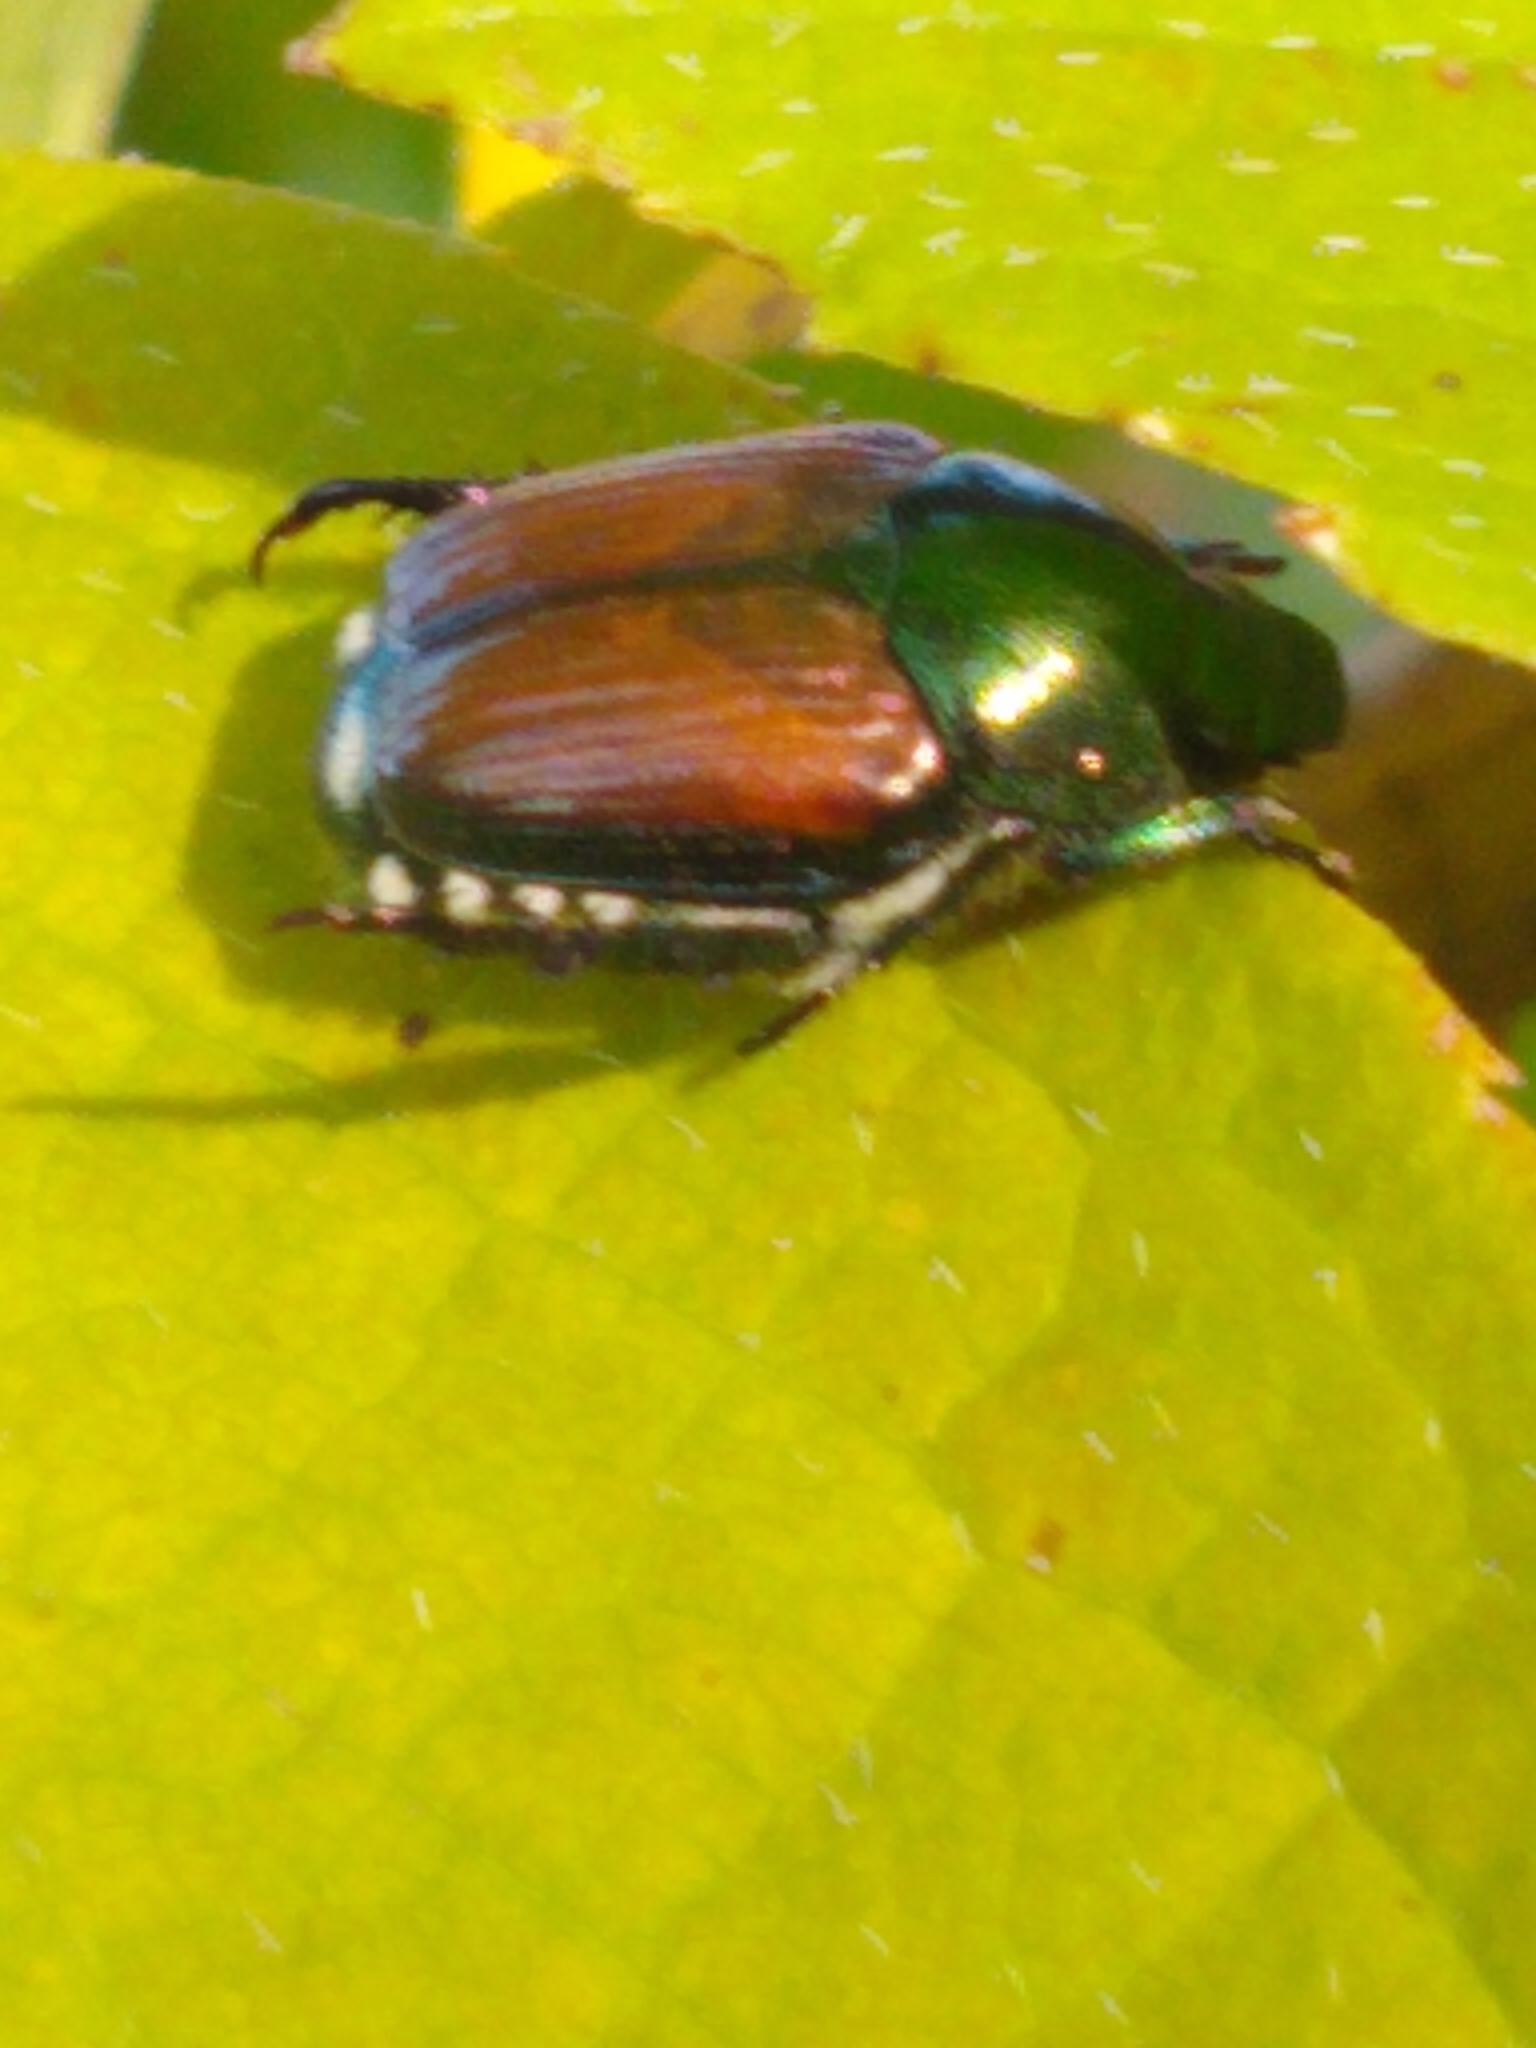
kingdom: Animalia
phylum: Arthropoda
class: Insecta
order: Coleoptera
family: Scarabaeidae
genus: Popillia
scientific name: Popillia japonica
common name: Japanese beetle
